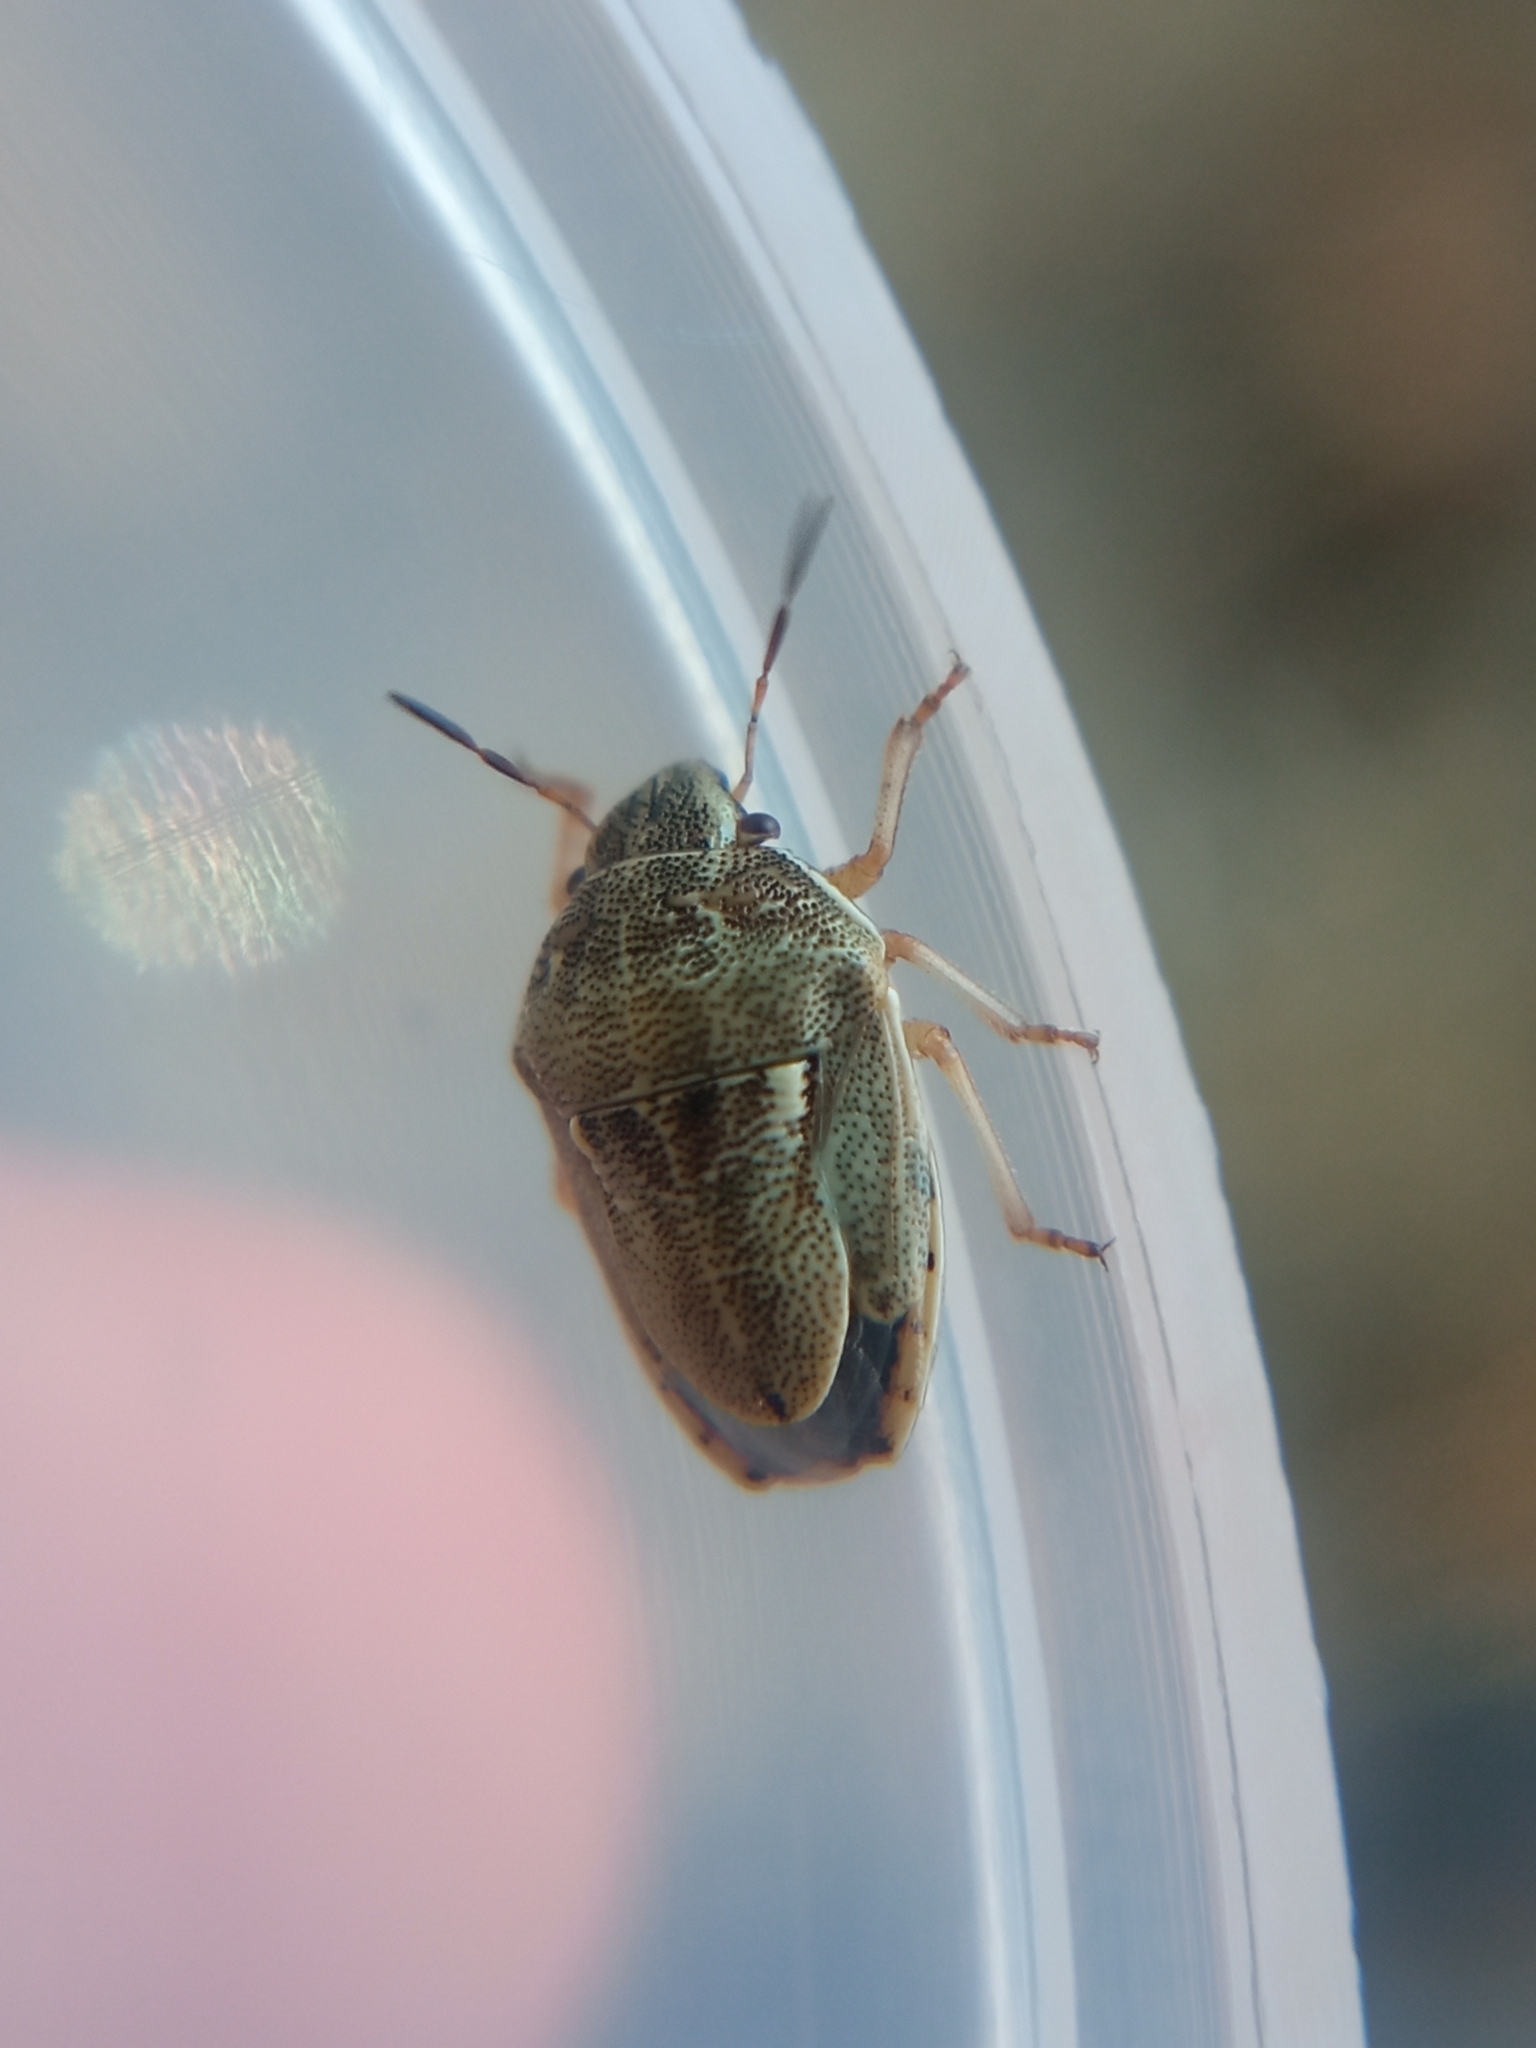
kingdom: Animalia
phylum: Arthropoda
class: Insecta
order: Hemiptera
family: Pentatomidae
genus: Neottiglossa
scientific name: Neottiglossa leporina
